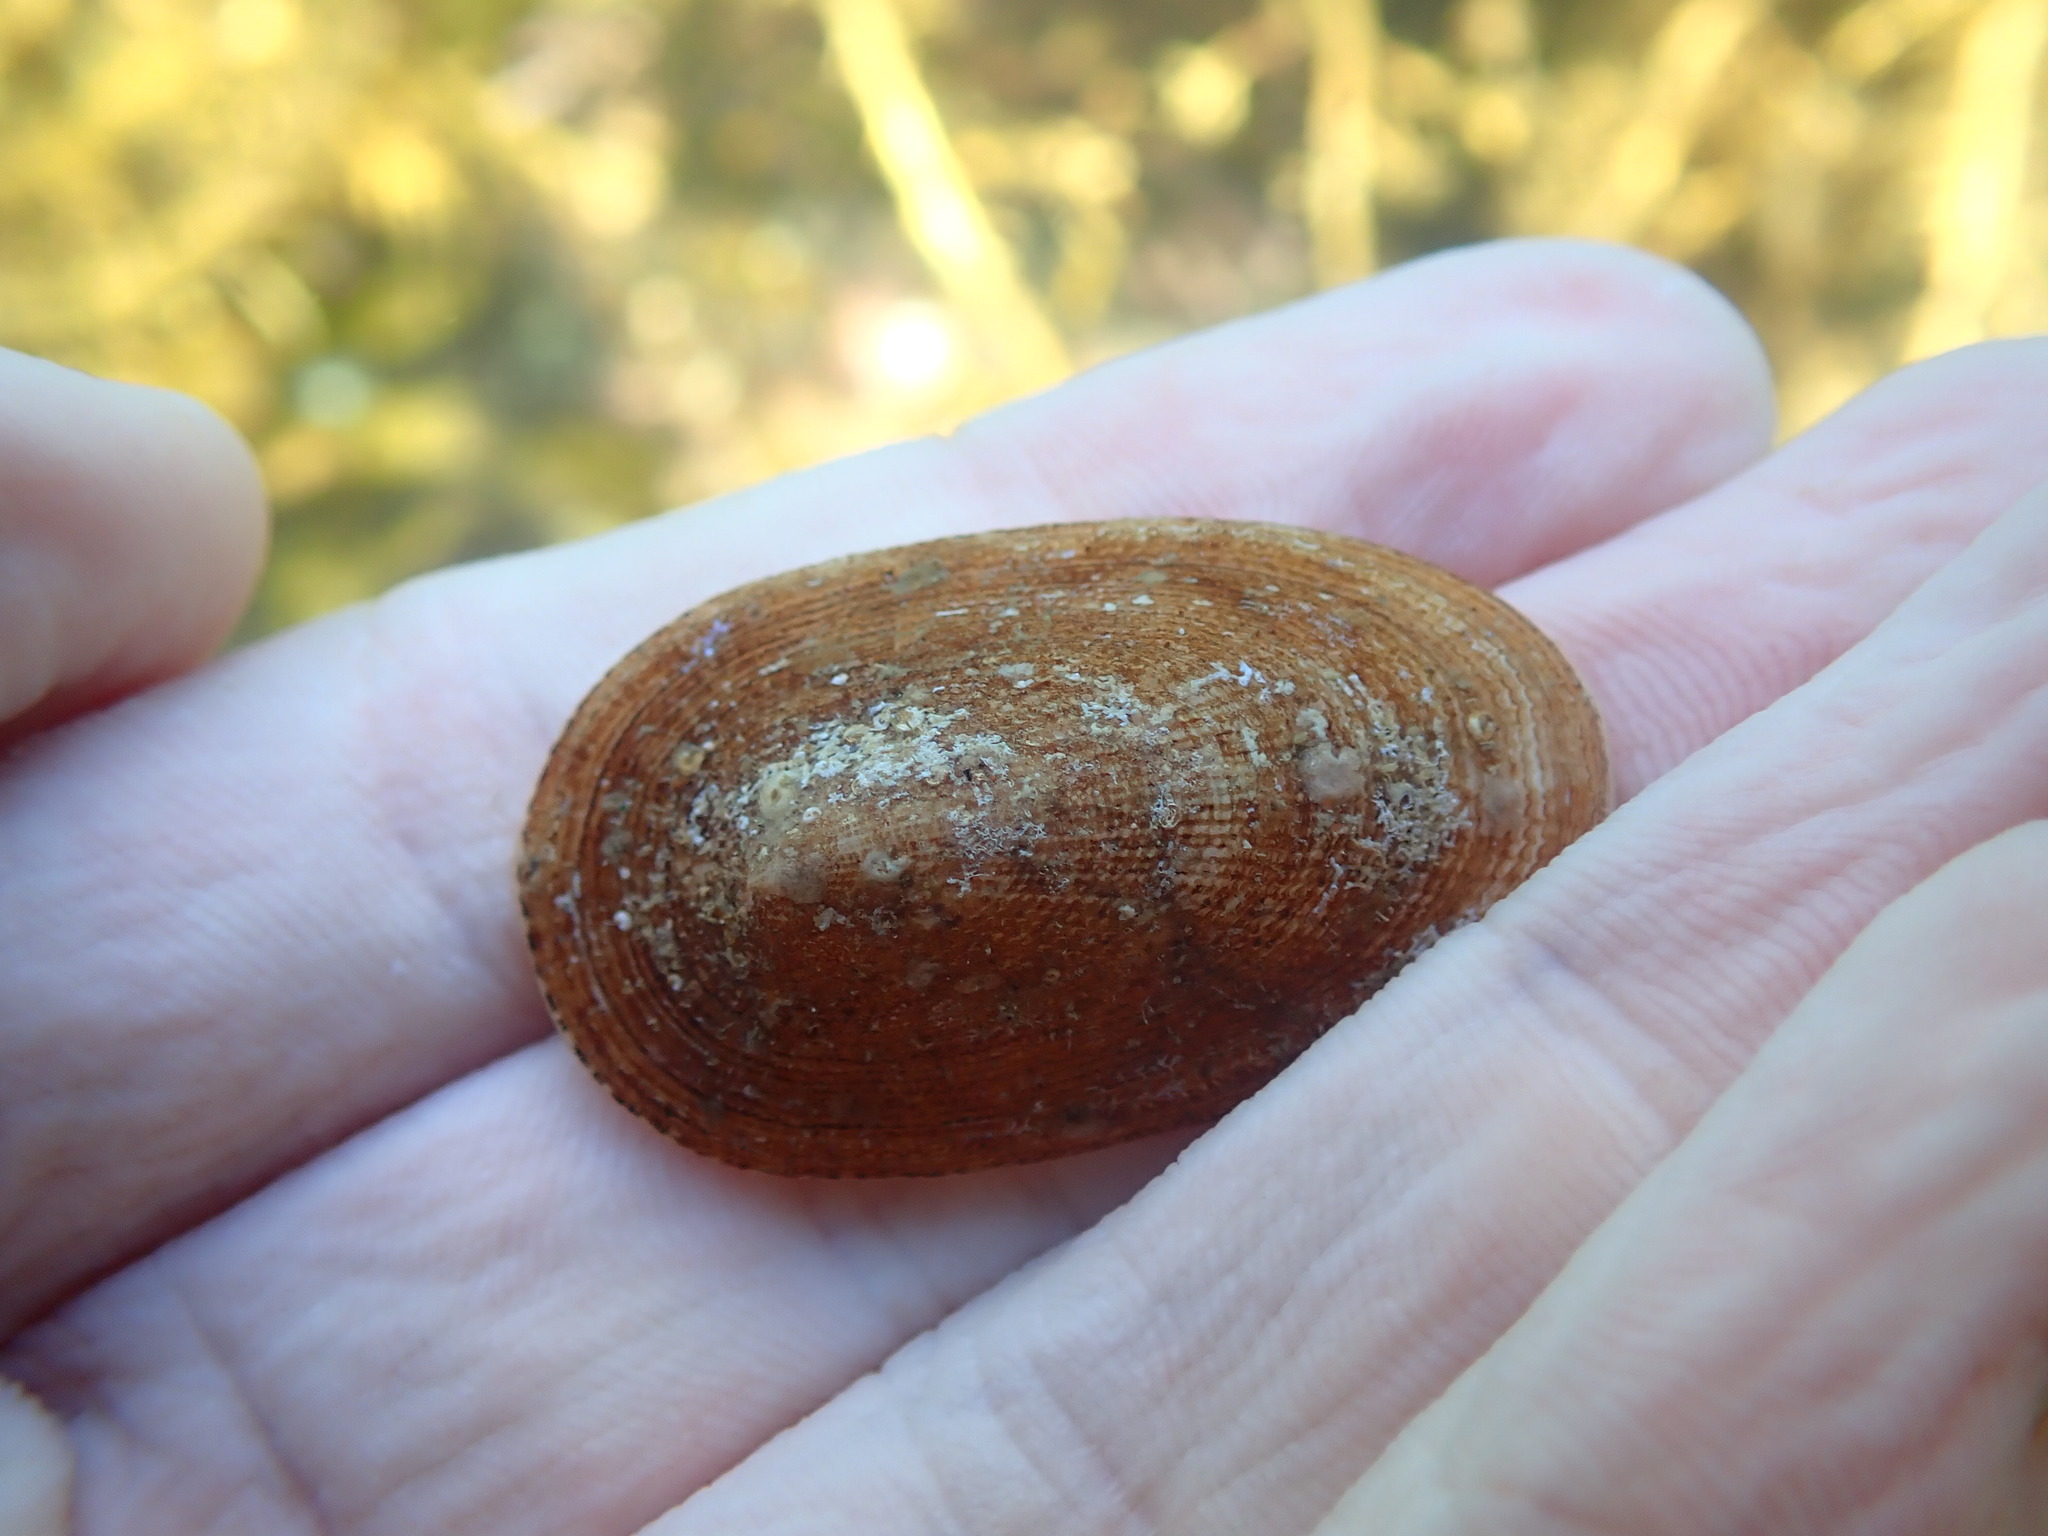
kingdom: Animalia
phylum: Mollusca
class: Gastropoda
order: Lepetellida
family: Fissurellidae
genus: Tugali
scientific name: Tugali elegans
